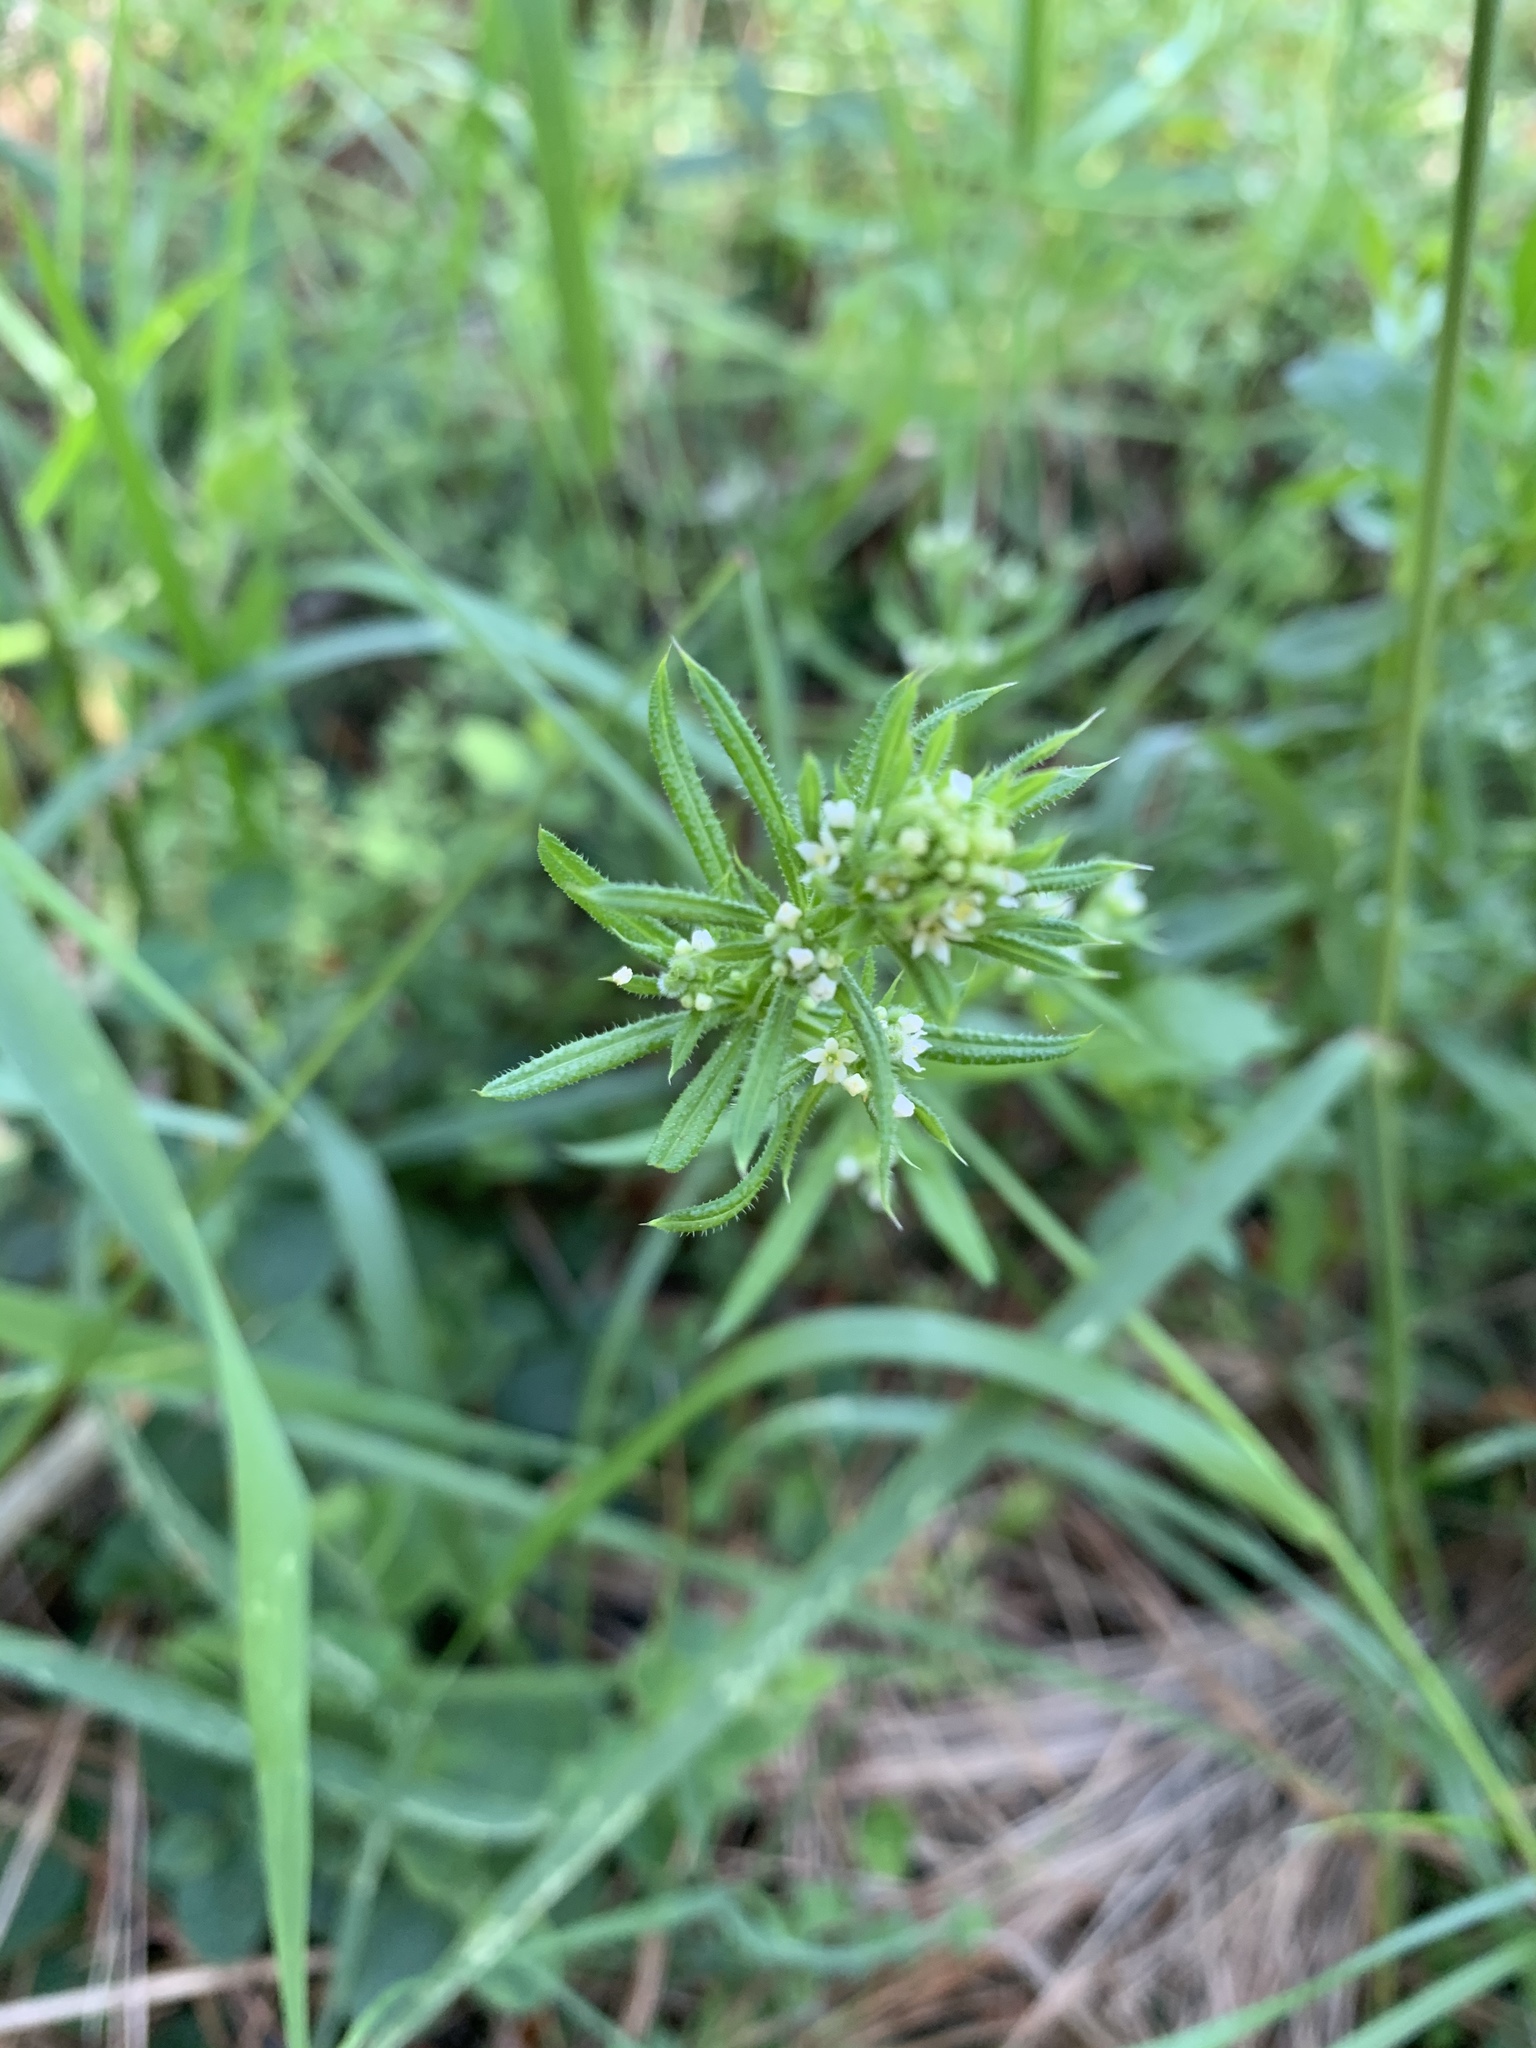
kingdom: Plantae
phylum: Tracheophyta
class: Magnoliopsida
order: Gentianales
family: Rubiaceae
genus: Galium
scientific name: Galium aparine
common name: Cleavers
